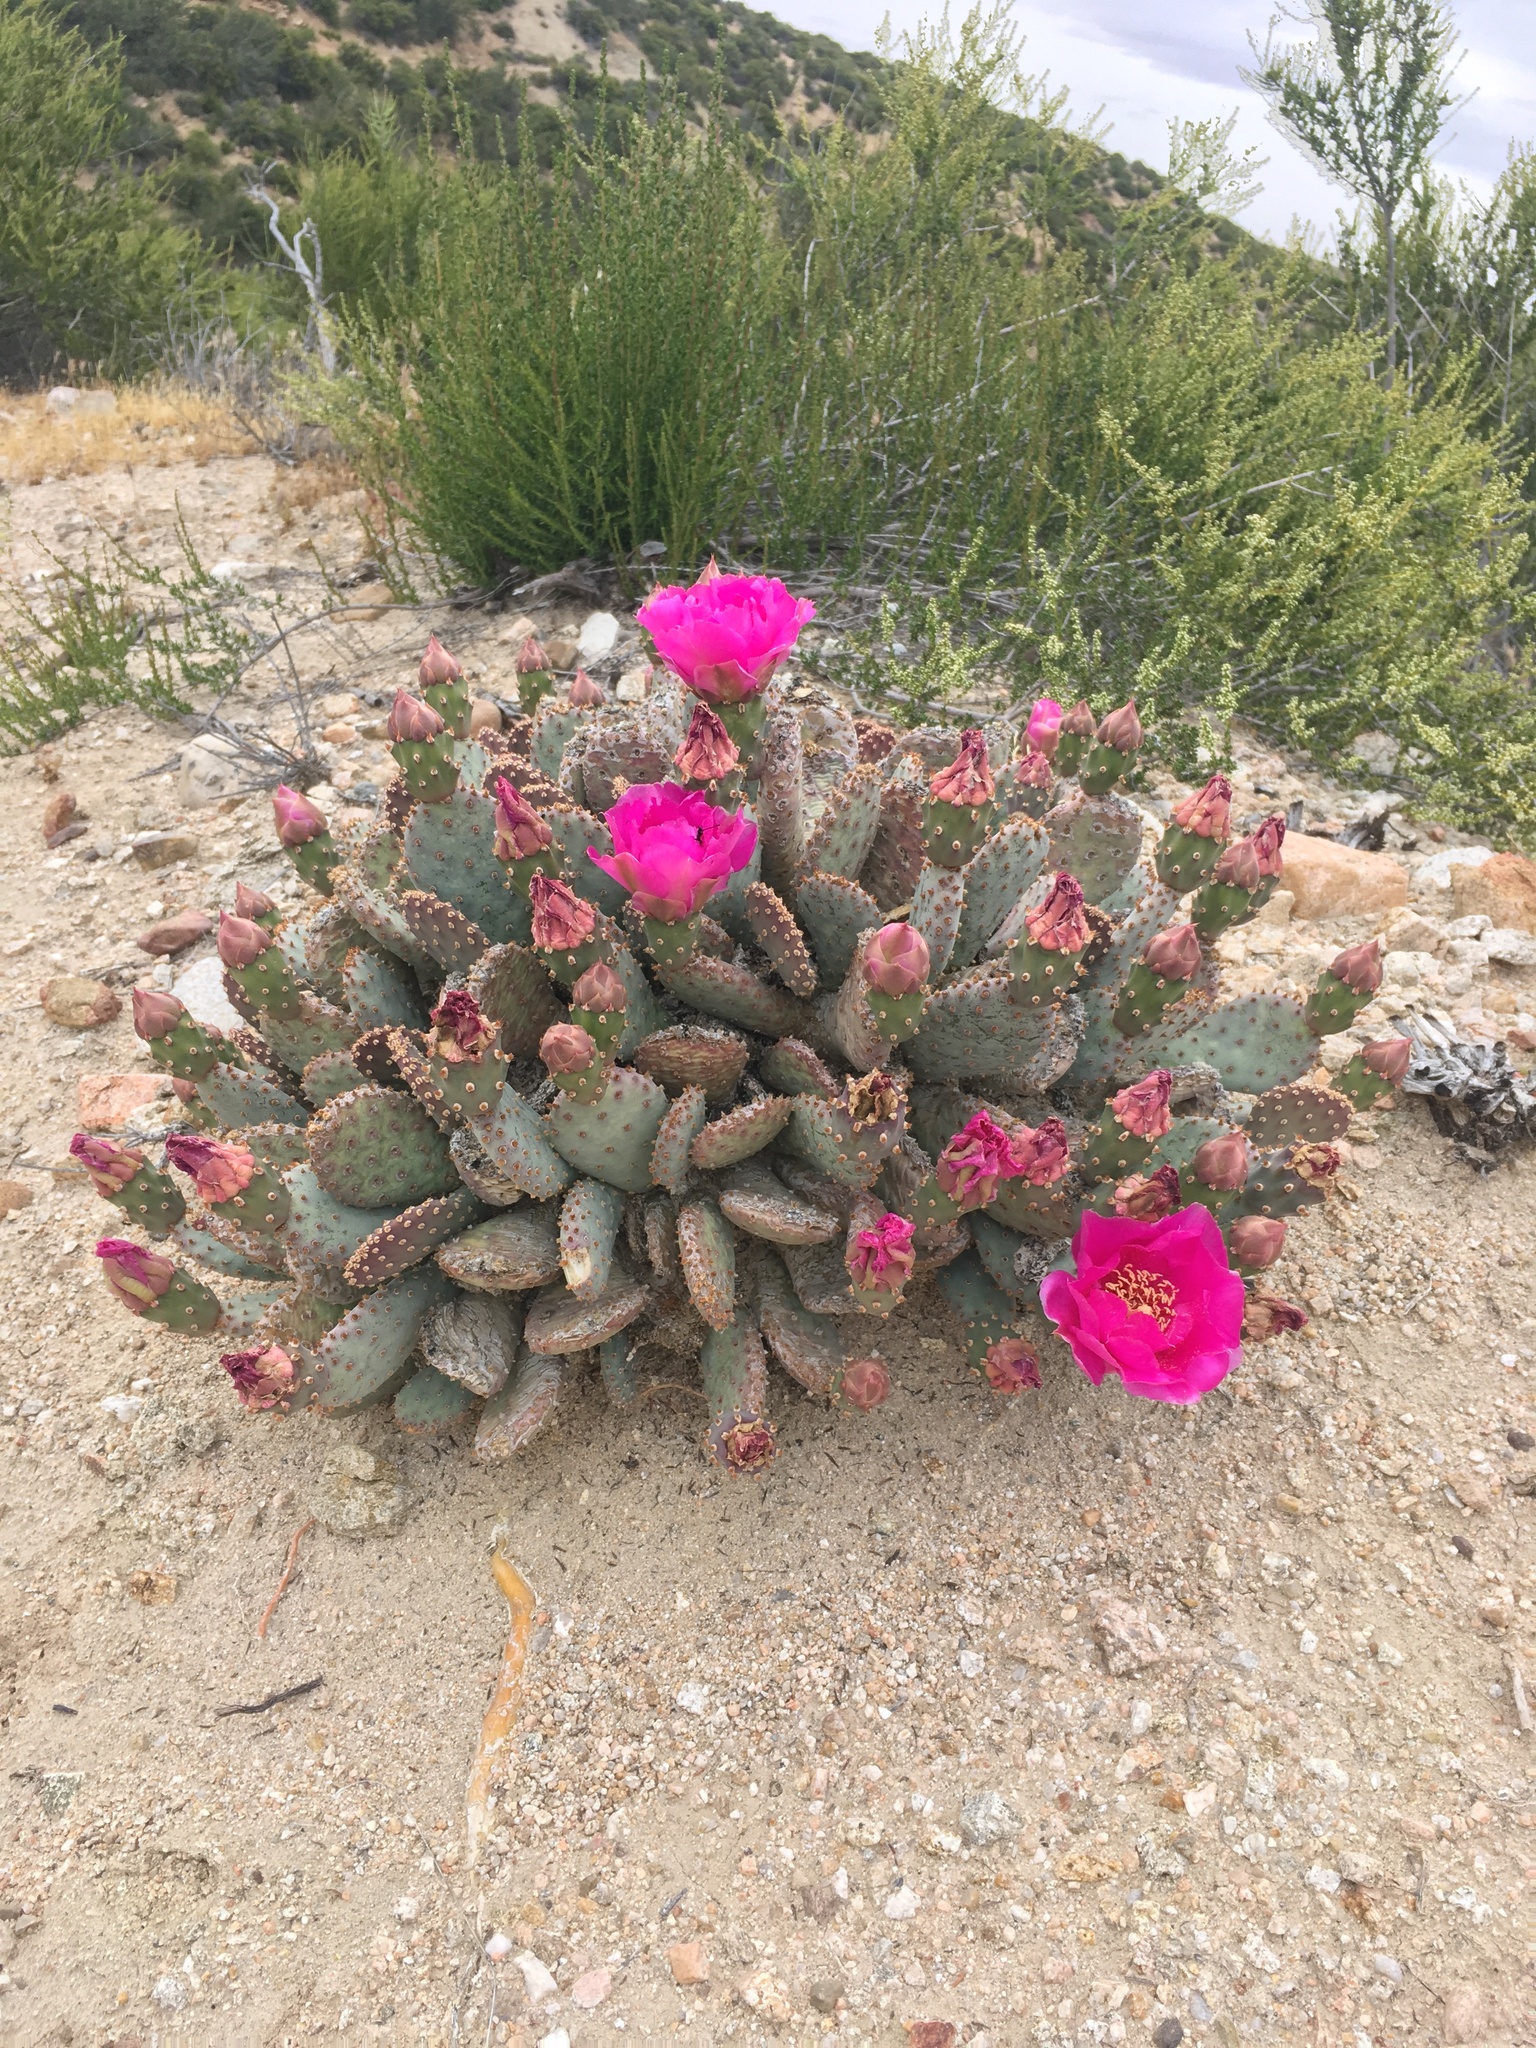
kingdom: Plantae
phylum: Tracheophyta
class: Magnoliopsida
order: Caryophyllales
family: Cactaceae
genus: Opuntia
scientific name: Opuntia basilaris
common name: Beavertail prickly-pear
